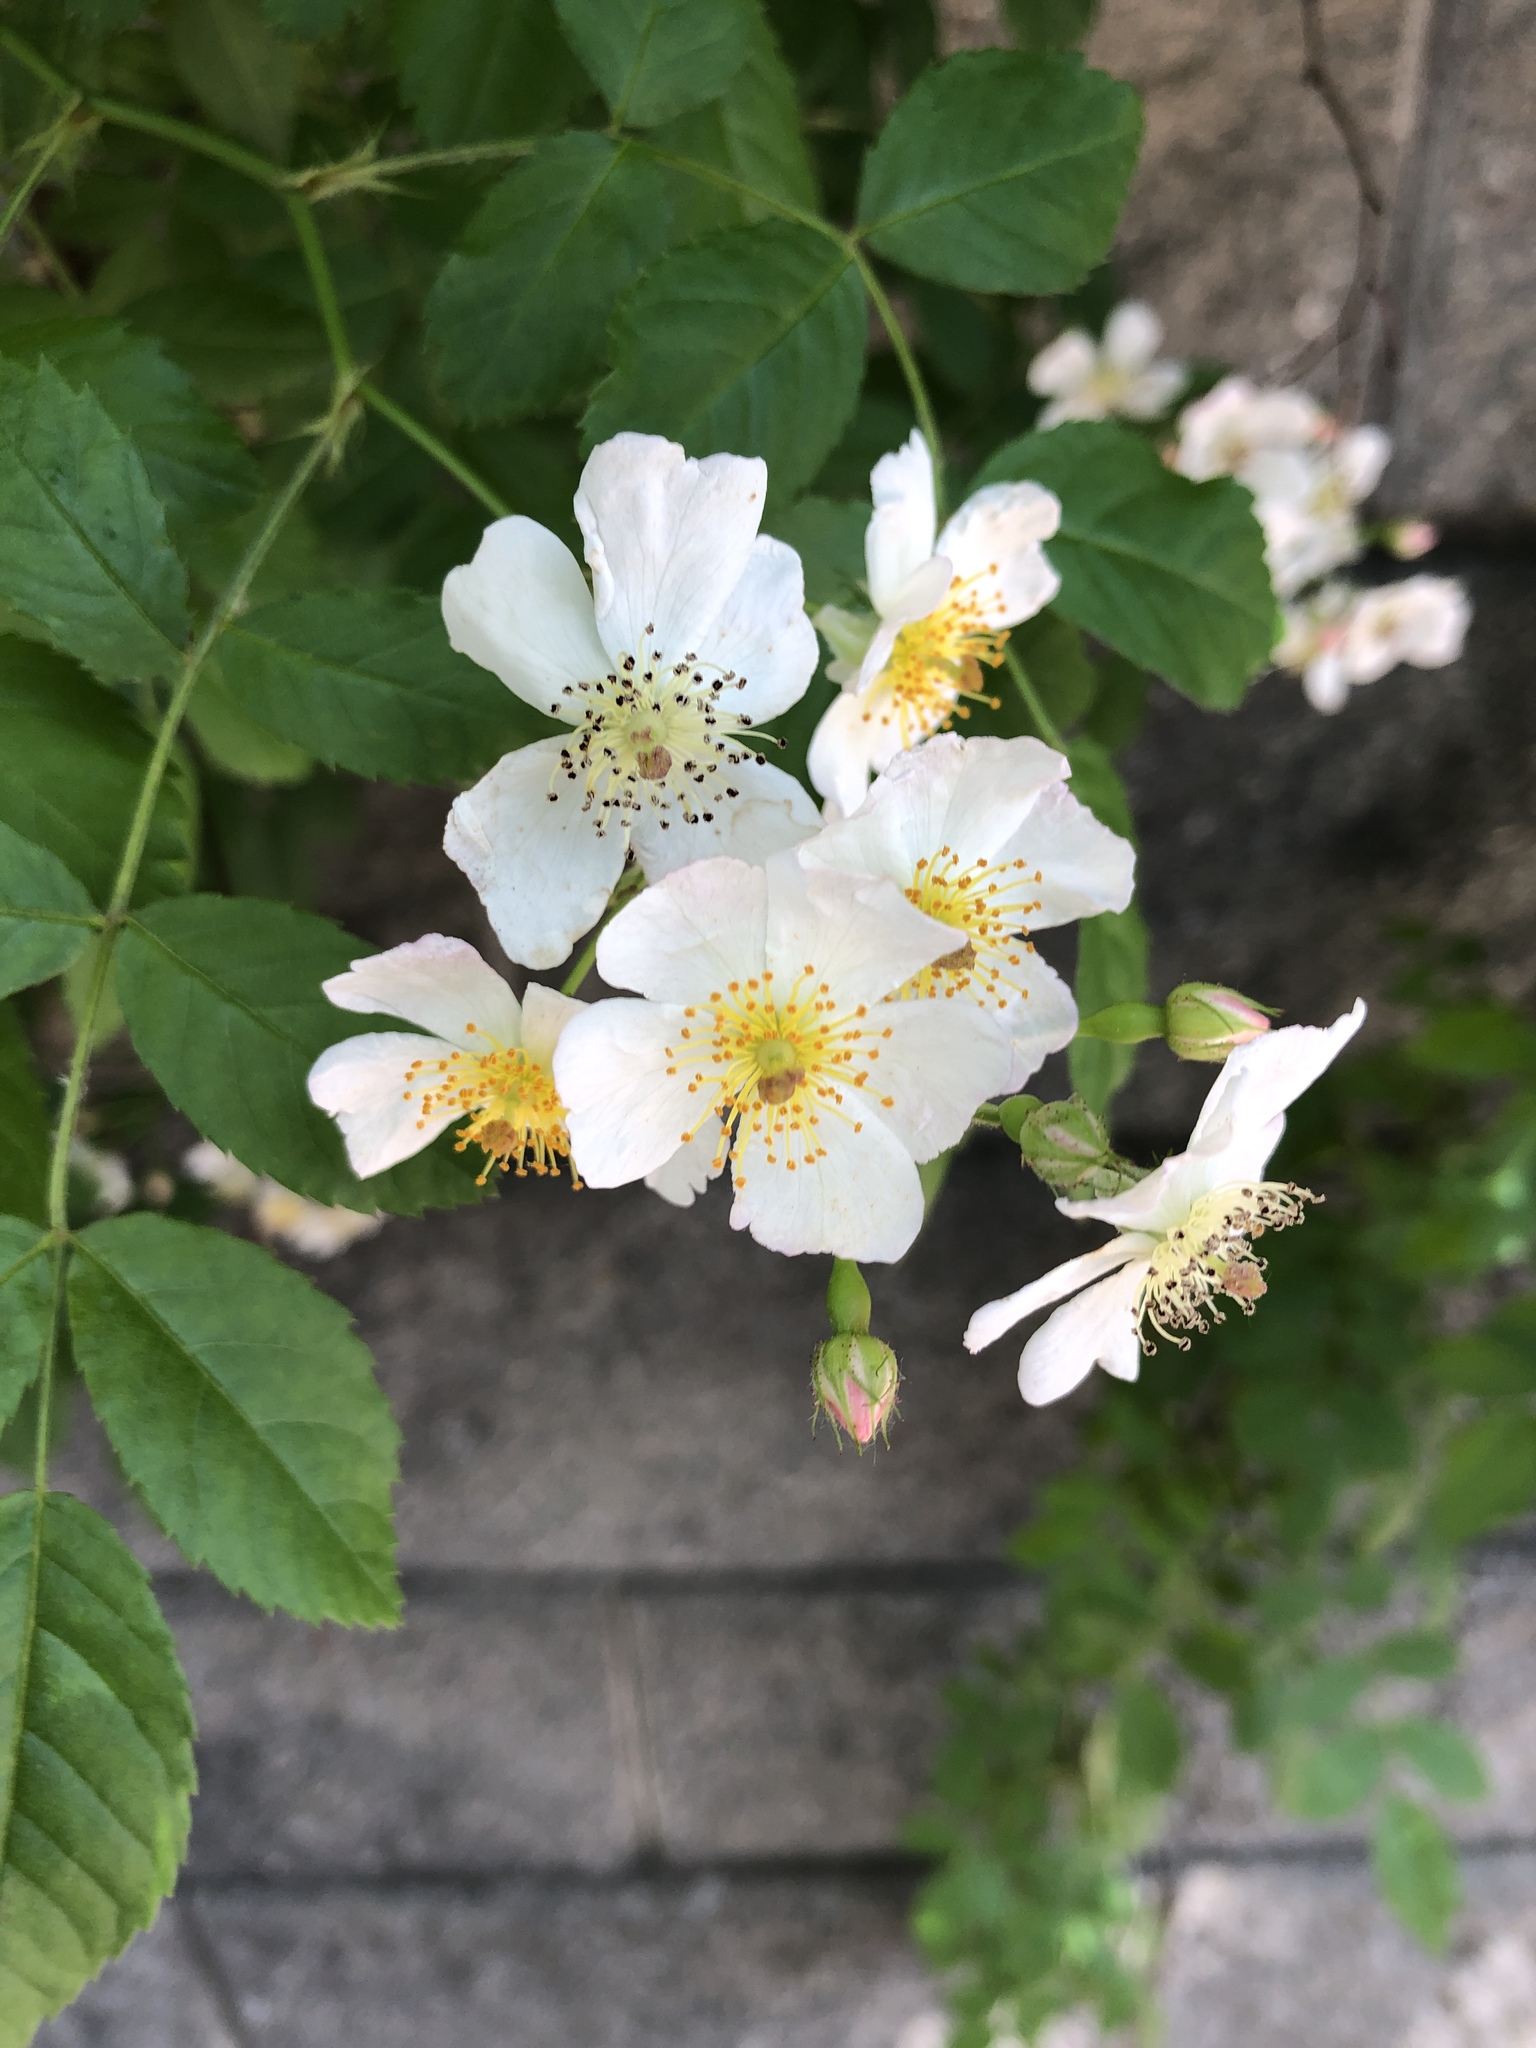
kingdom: Plantae
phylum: Tracheophyta
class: Magnoliopsida
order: Rosales
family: Rosaceae
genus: Rosa
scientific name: Rosa multiflora
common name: Multiflora rose
